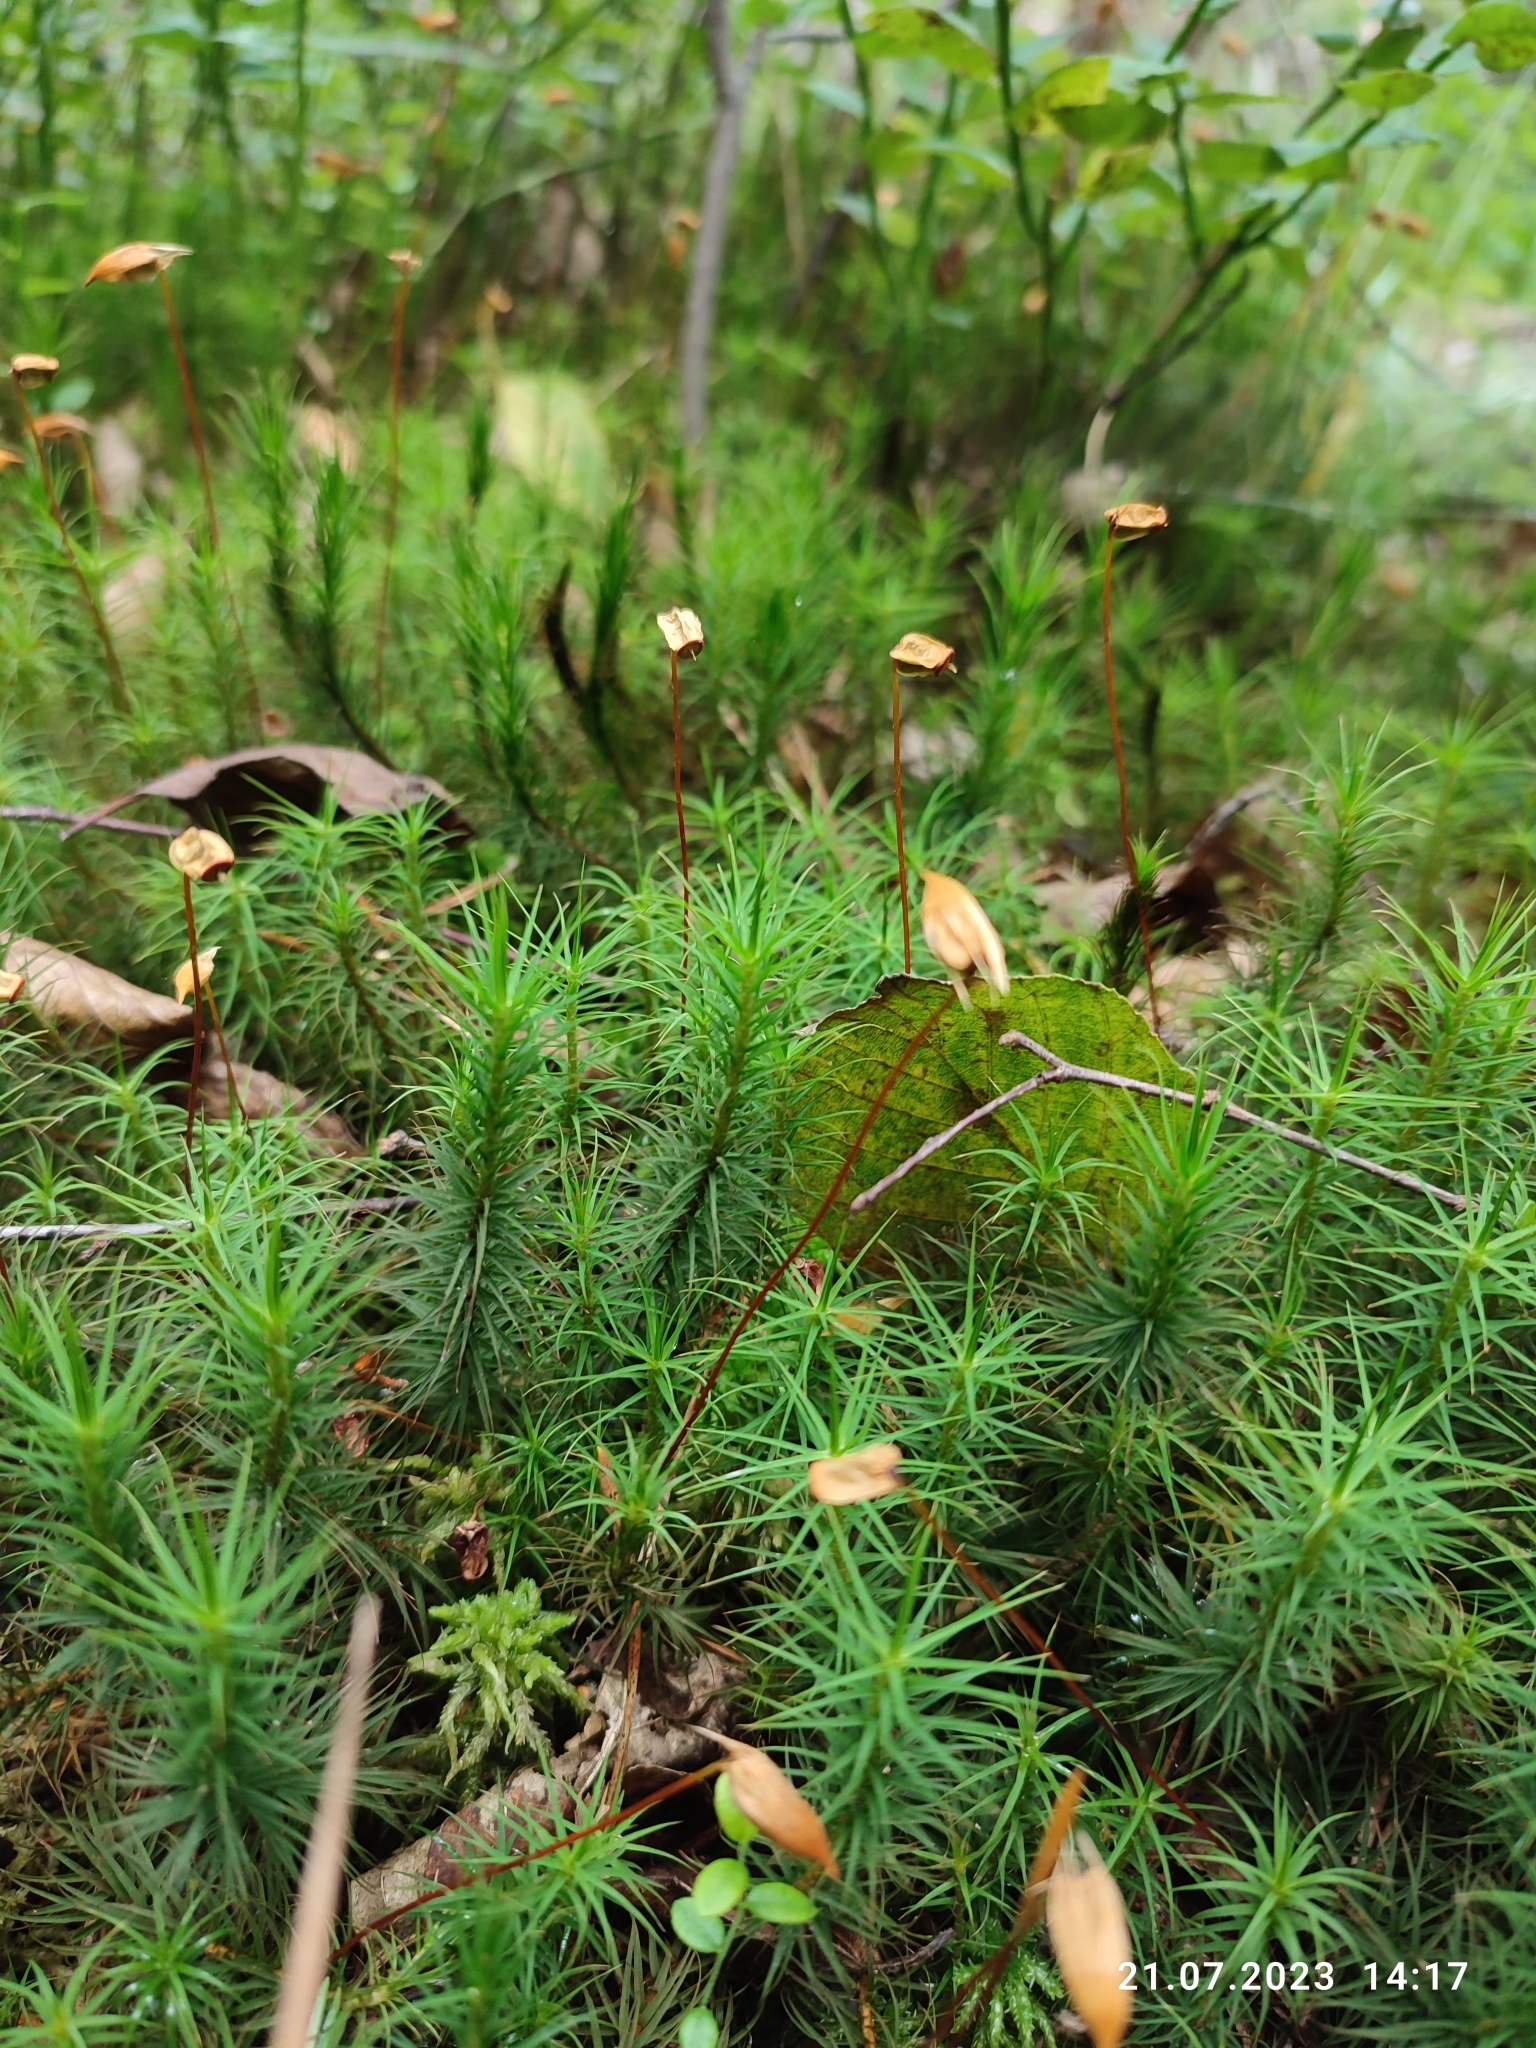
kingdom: Plantae
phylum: Bryophyta
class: Polytrichopsida
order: Polytrichales
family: Polytrichaceae
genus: Polytrichum
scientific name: Polytrichum commune
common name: Common haircap
